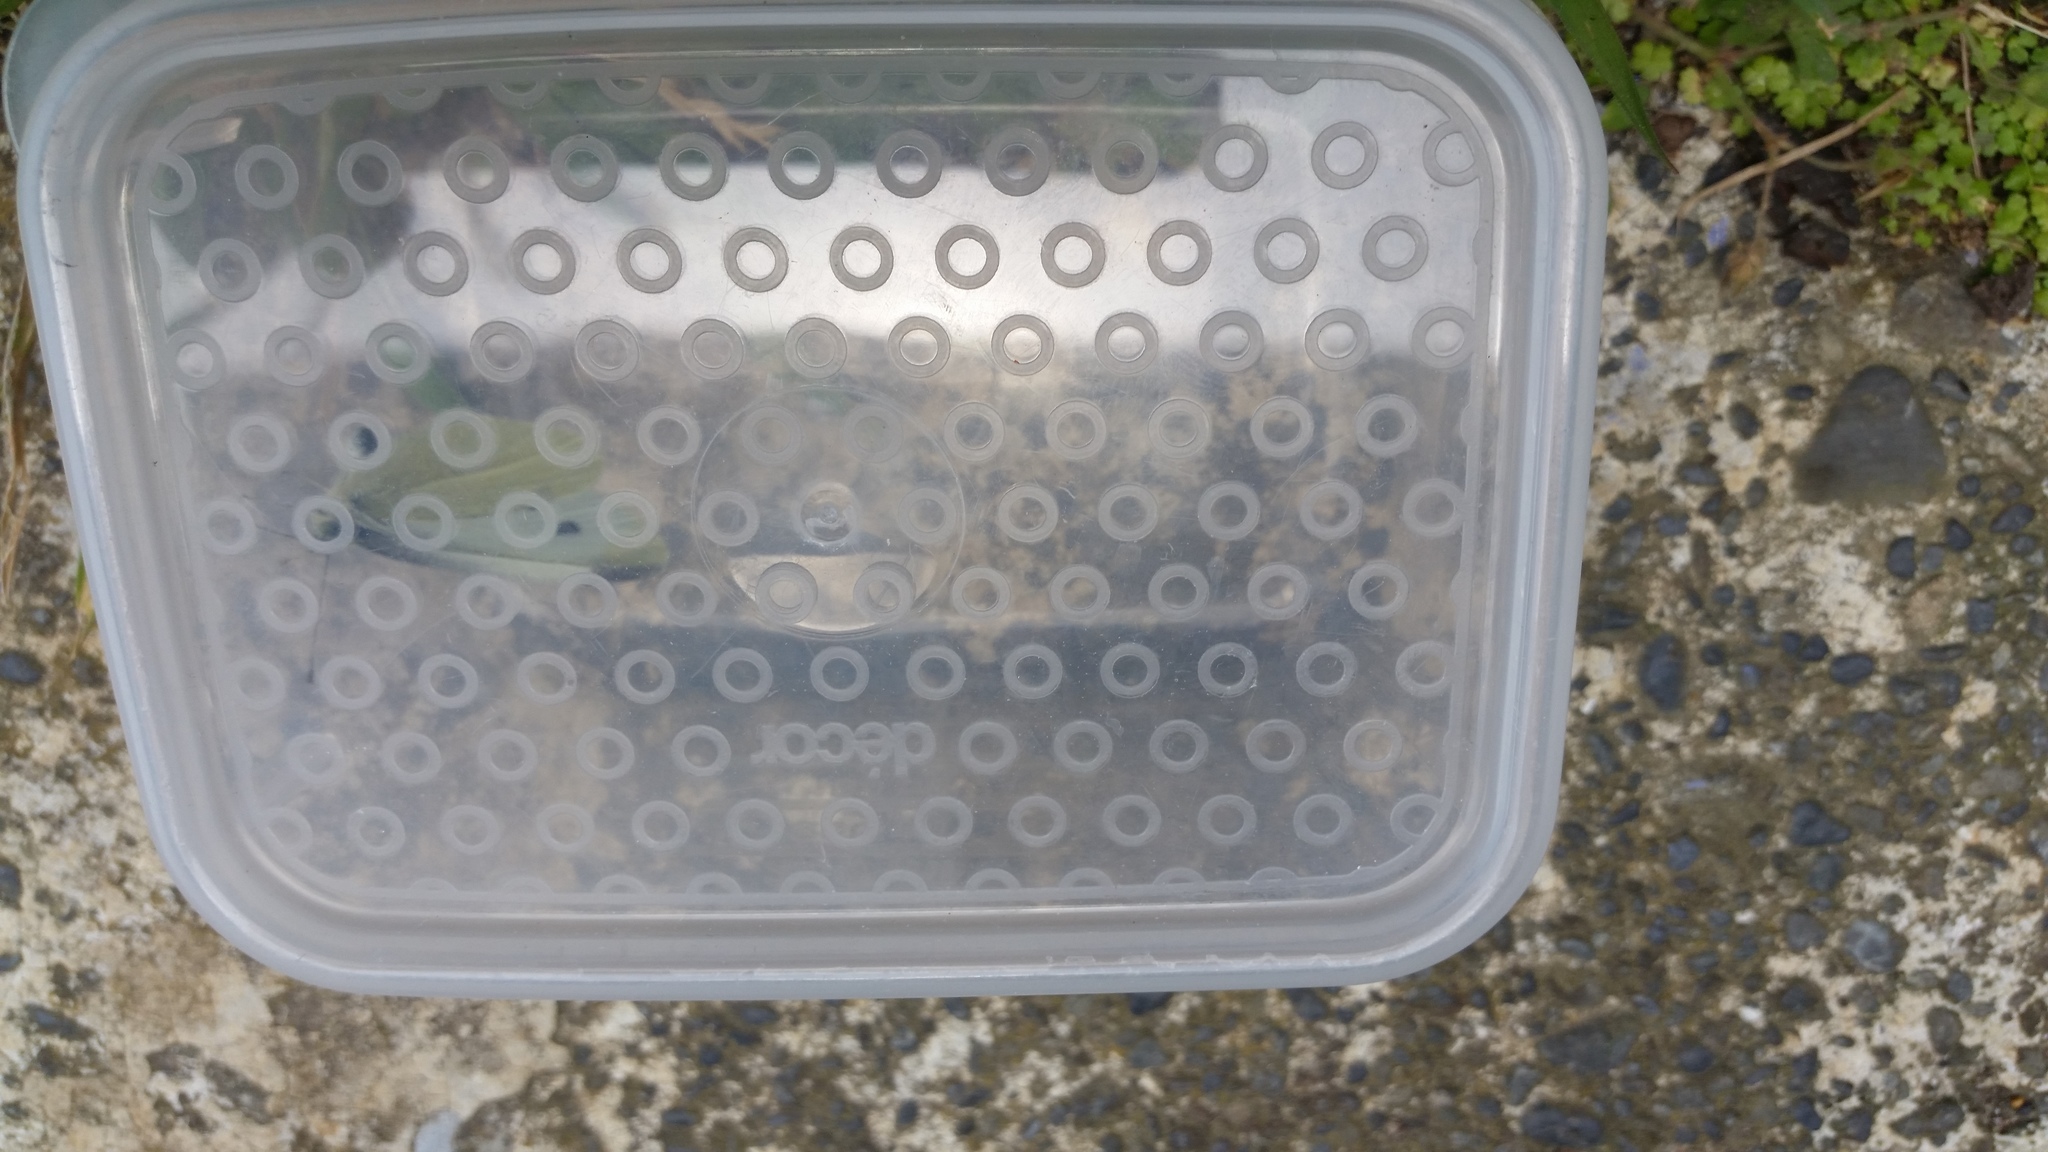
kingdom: Animalia
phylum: Arthropoda
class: Insecta
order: Lepidoptera
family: Pieridae
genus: Pieris
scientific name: Pieris rapae
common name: Small white
